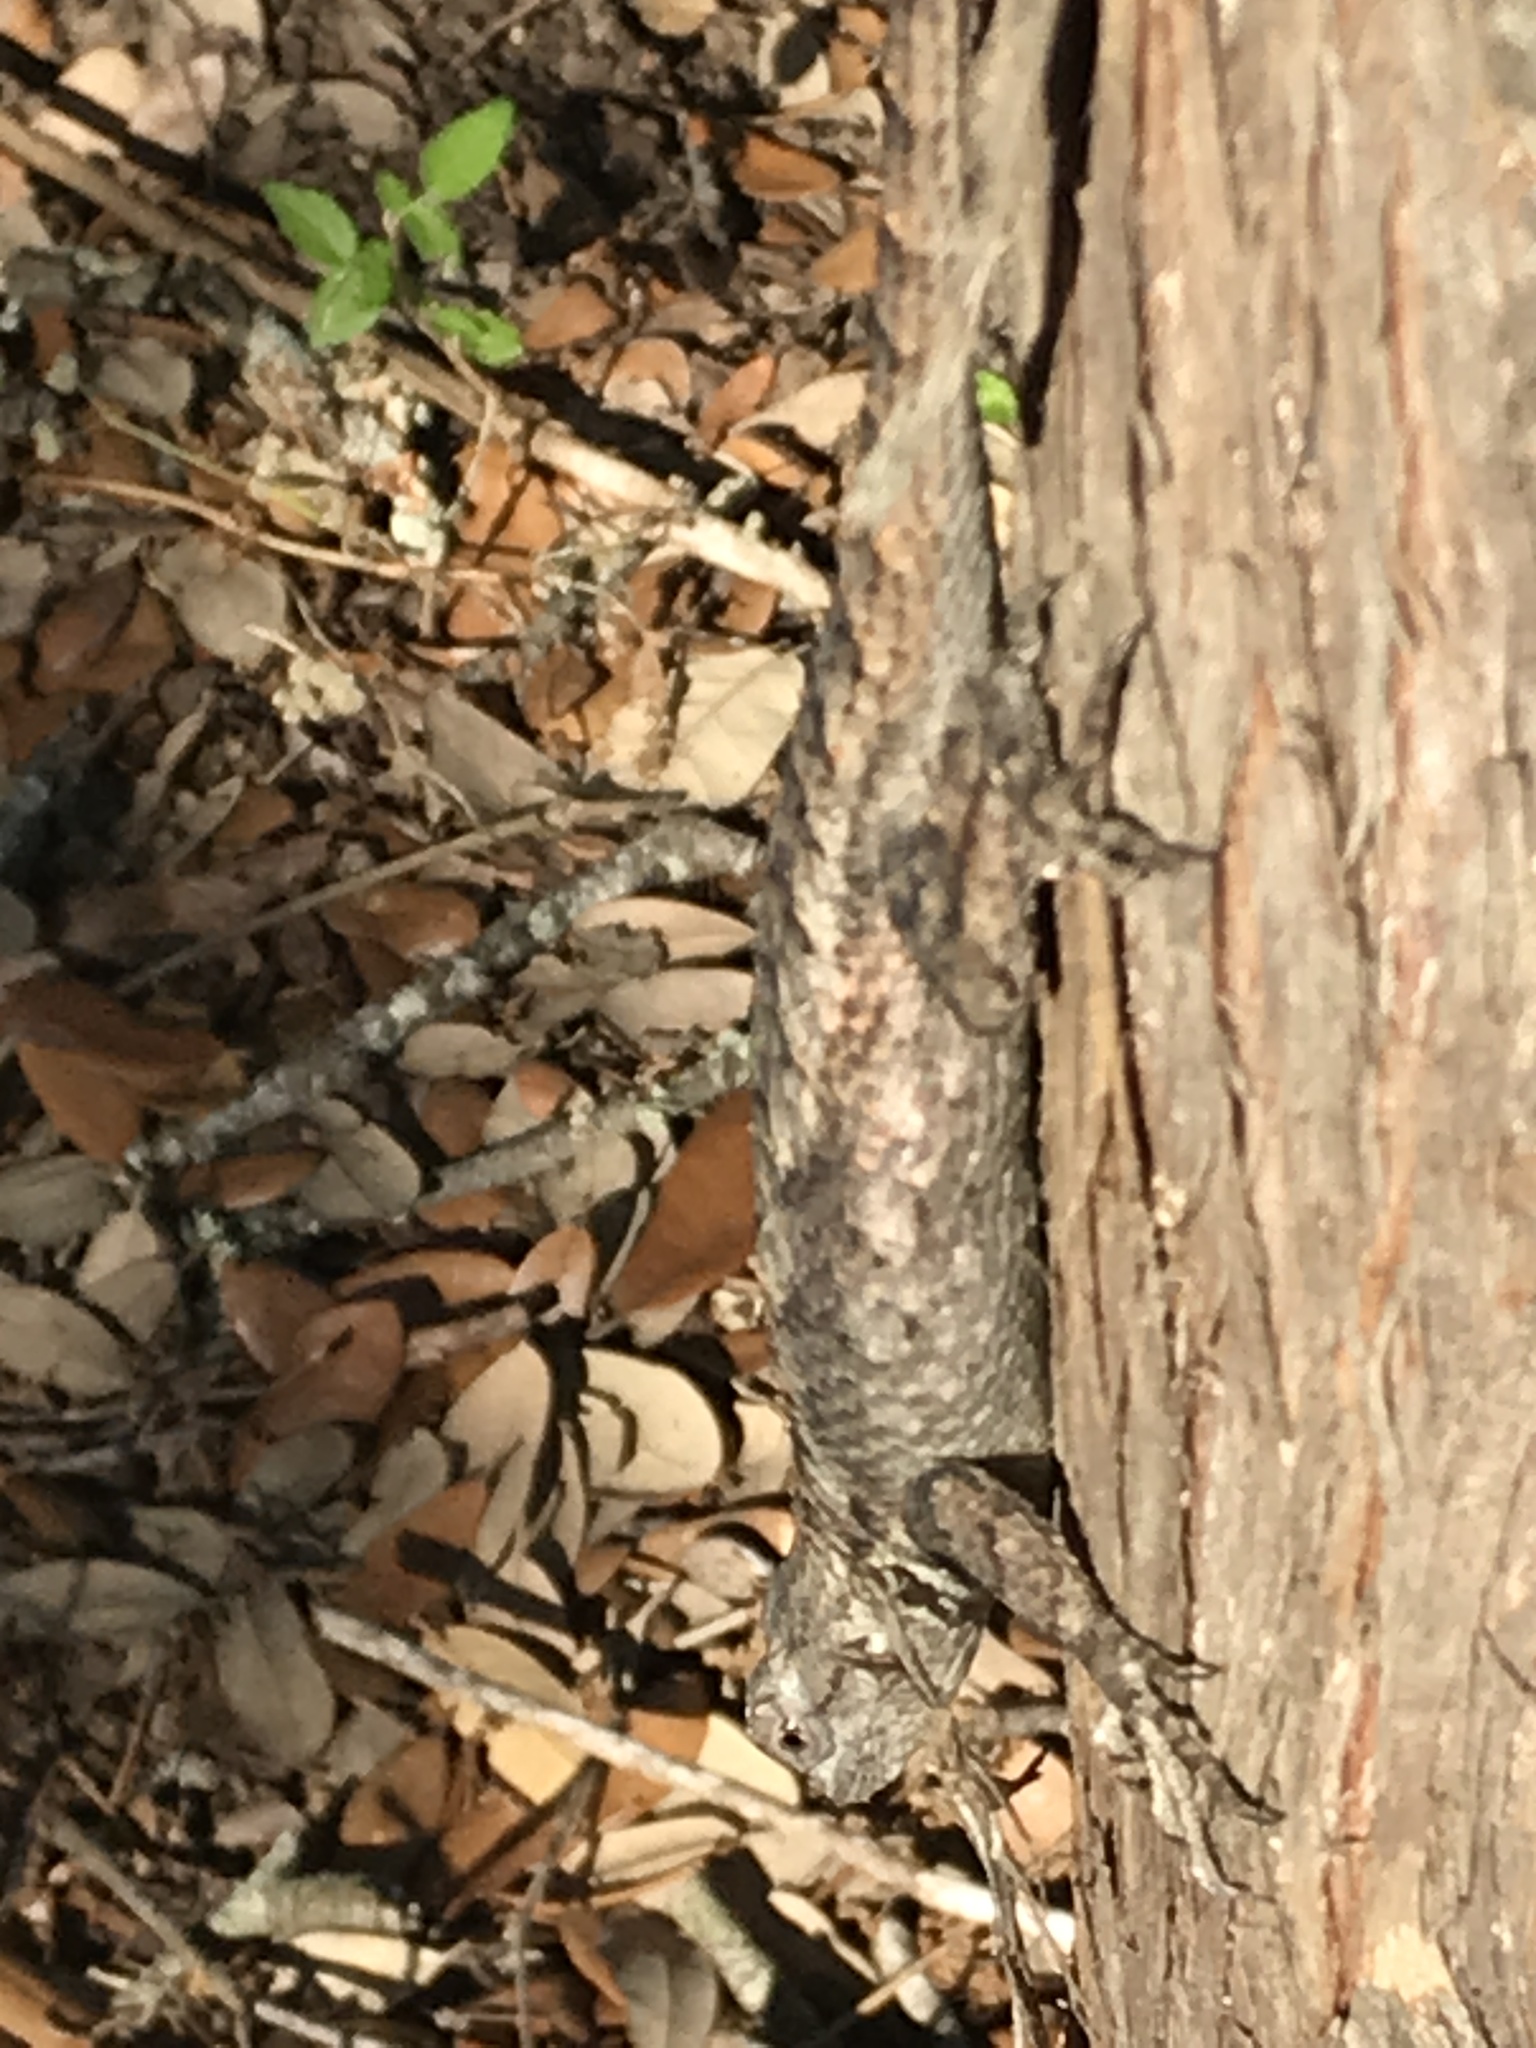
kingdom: Animalia
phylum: Chordata
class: Squamata
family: Phrynosomatidae
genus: Sceloporus
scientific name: Sceloporus olivaceus
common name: Texas spiny lizard
